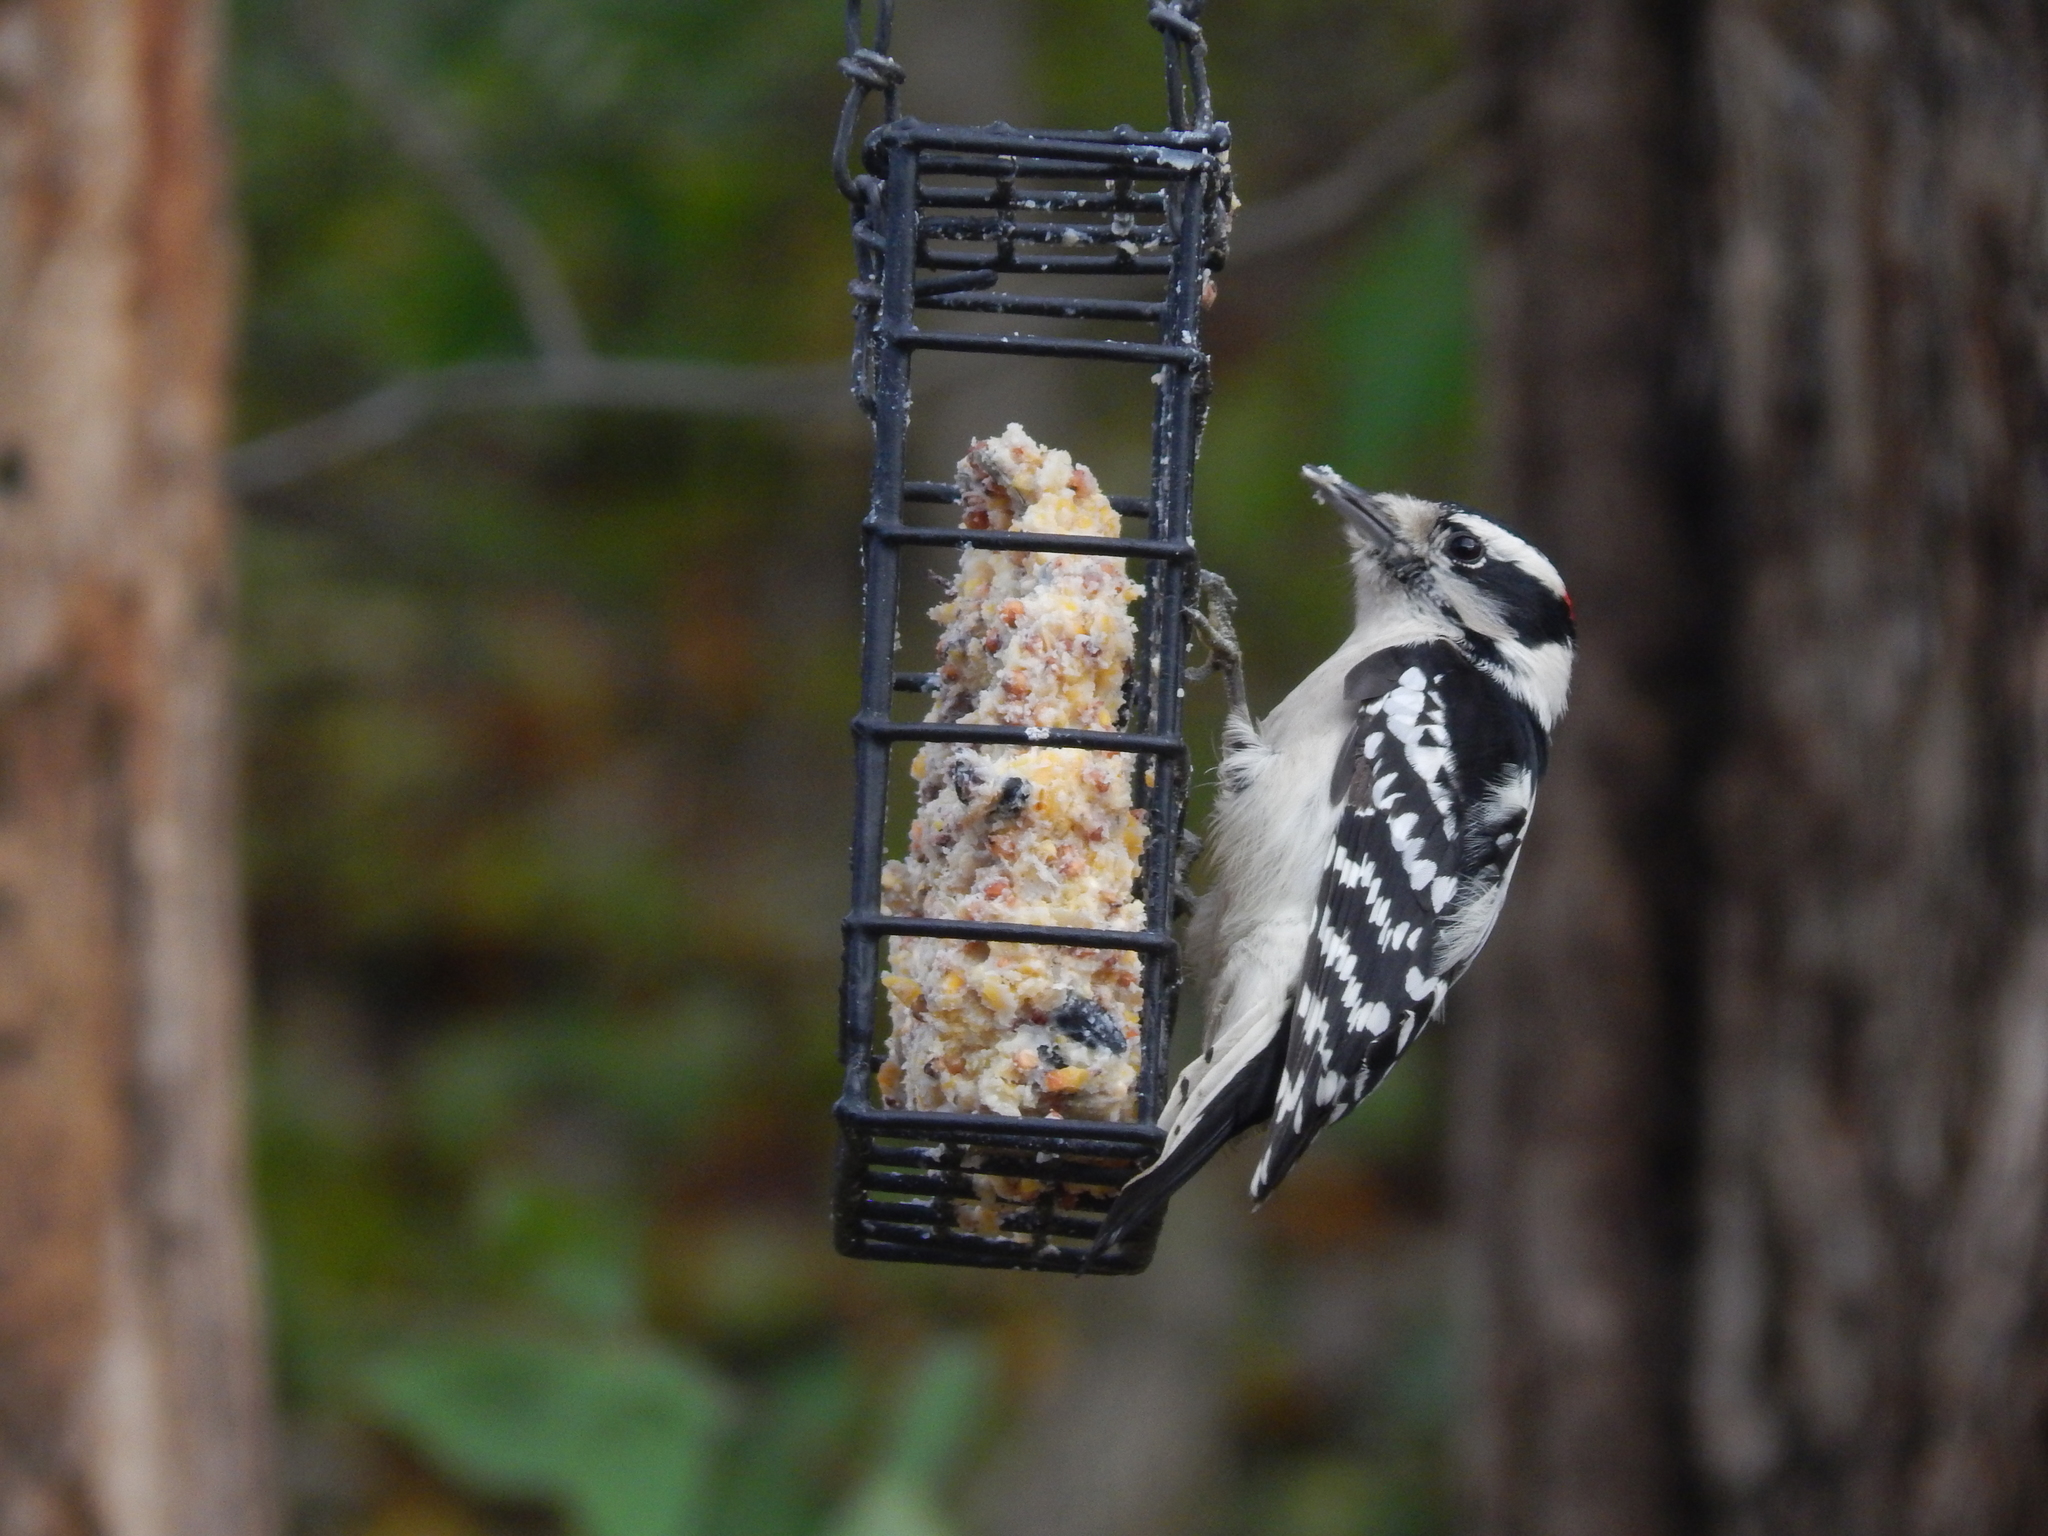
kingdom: Animalia
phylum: Chordata
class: Aves
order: Piciformes
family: Picidae
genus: Dryobates
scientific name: Dryobates pubescens
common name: Downy woodpecker
